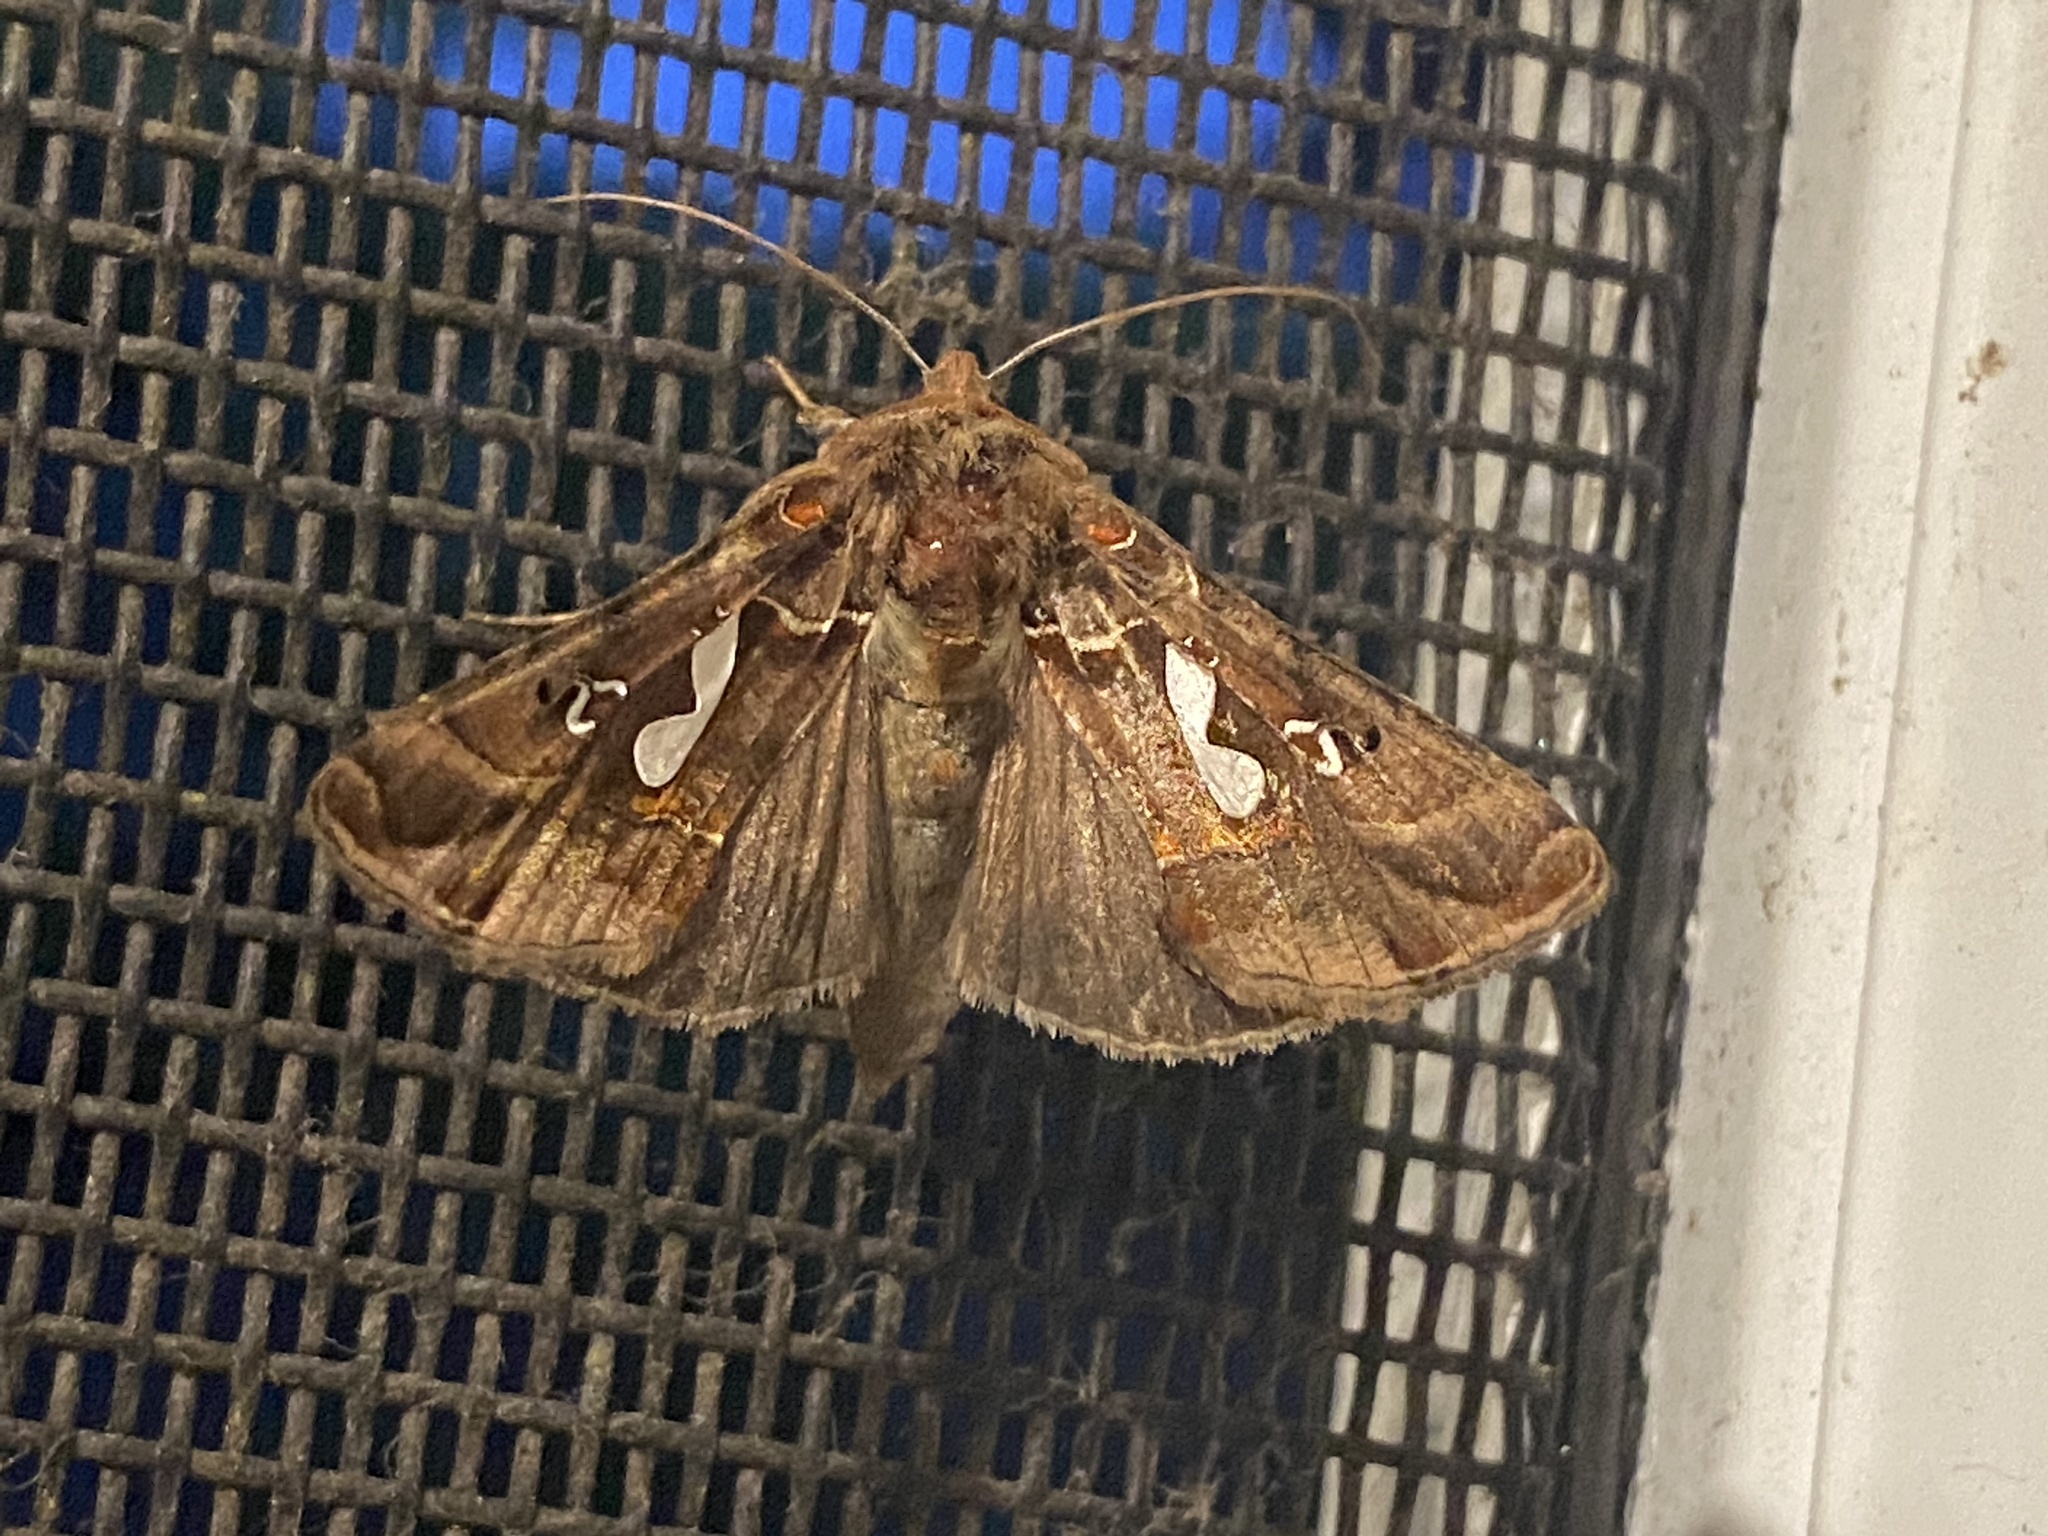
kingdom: Animalia
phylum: Arthropoda
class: Insecta
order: Lepidoptera
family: Noctuidae
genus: Megalographa
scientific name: Megalographa biloba
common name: Cutworm
